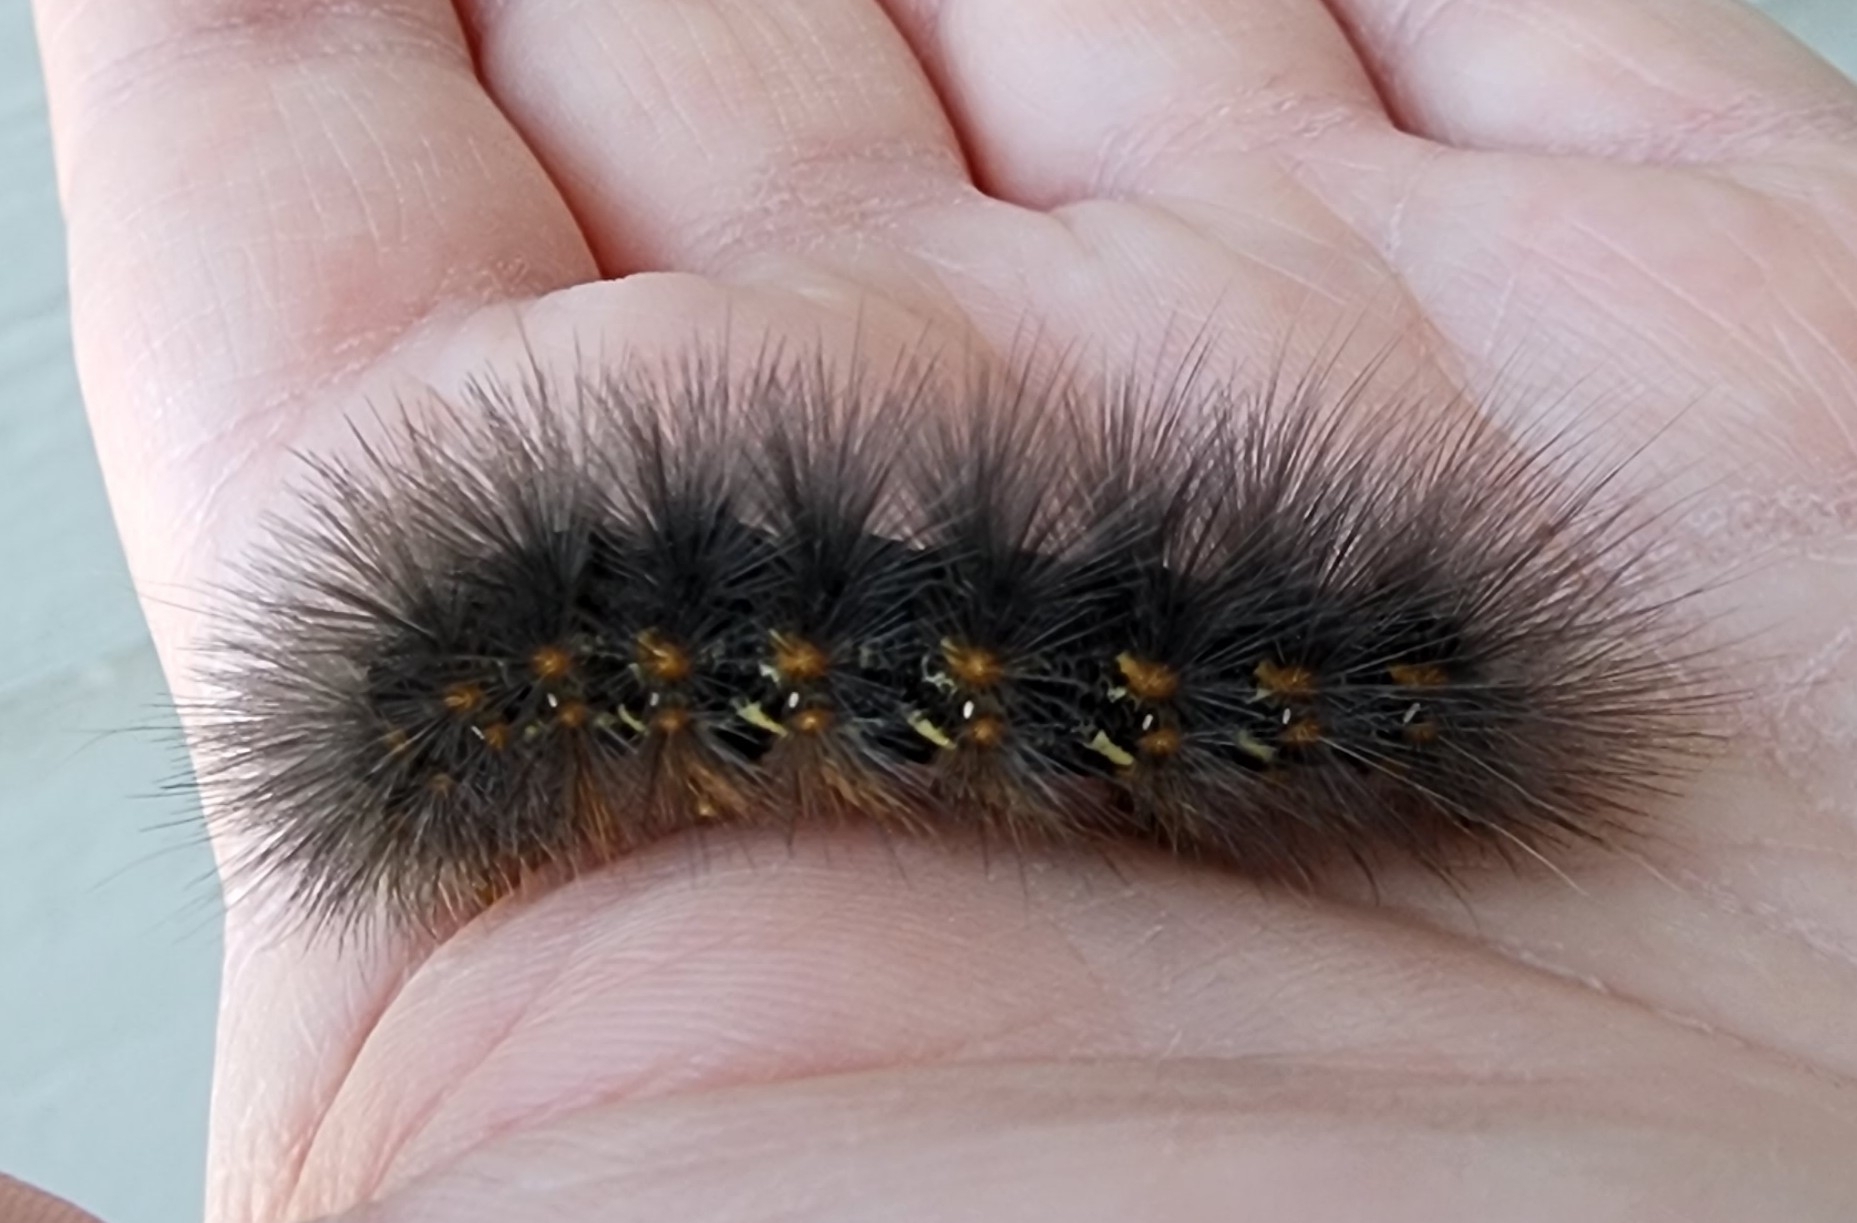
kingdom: Animalia
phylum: Arthropoda
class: Insecta
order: Lepidoptera
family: Erebidae
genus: Estigmene
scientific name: Estigmene acrea
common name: Salt marsh moth
